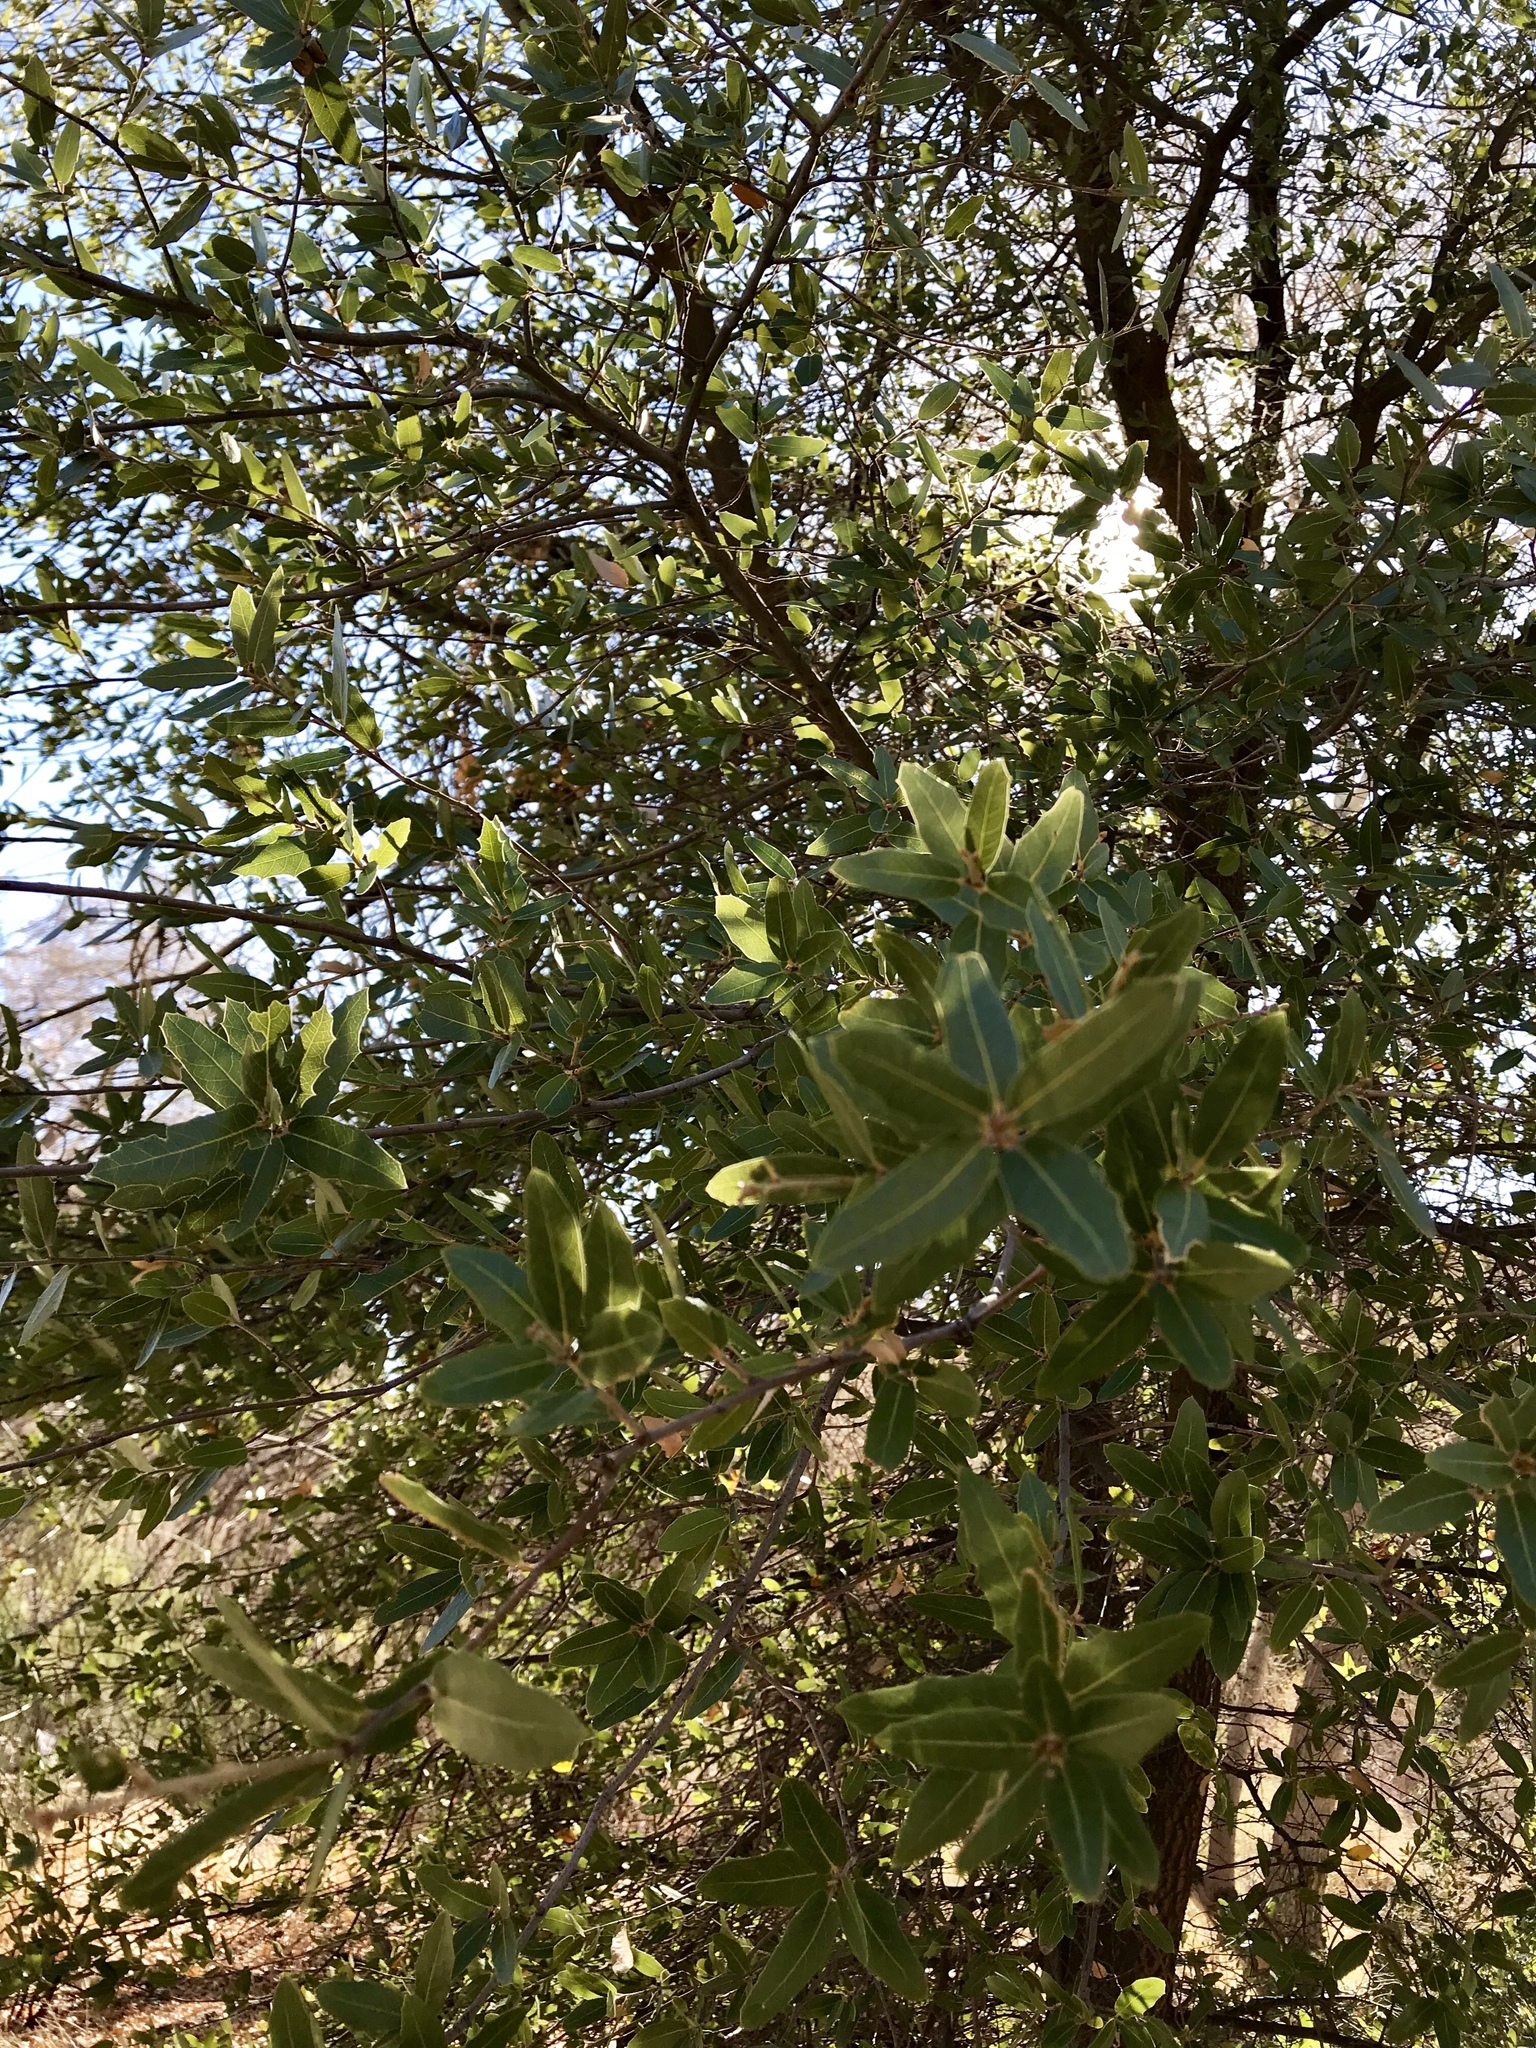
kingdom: Plantae
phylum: Tracheophyta
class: Magnoliopsida
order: Fagales
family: Fagaceae
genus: Quercus
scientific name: Quercus emoryi
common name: Emory oak
